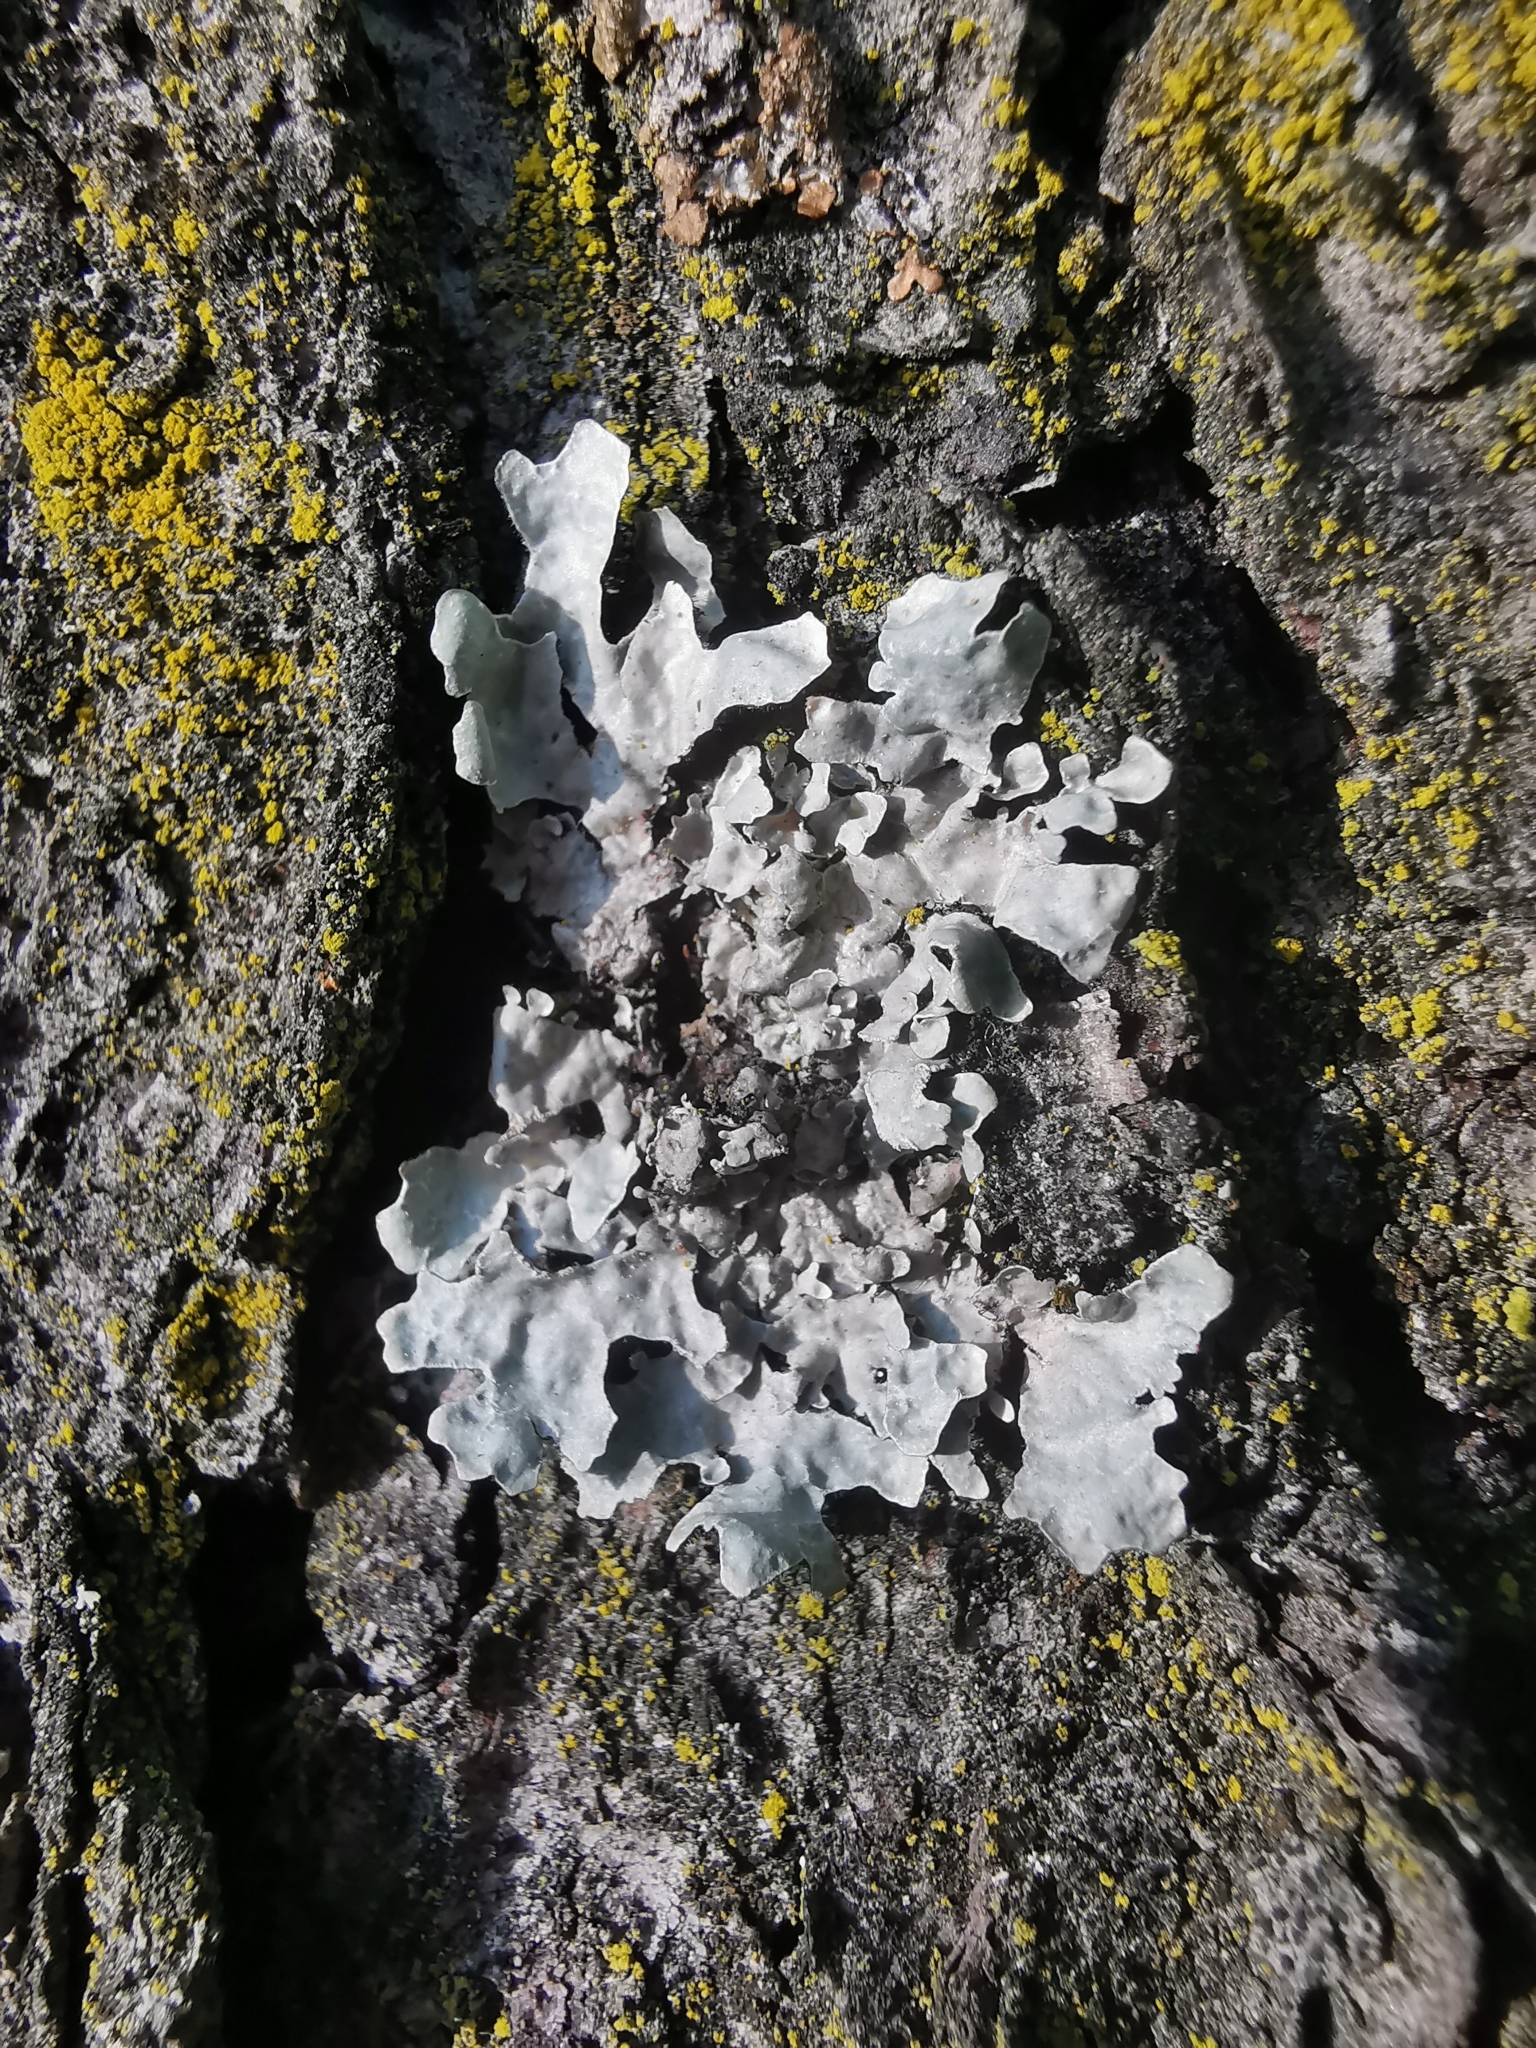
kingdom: Fungi
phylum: Ascomycota
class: Lecanoromycetes
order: Lecanorales
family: Parmeliaceae
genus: Parmelia
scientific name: Parmelia sulcata
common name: Netted shield lichen
